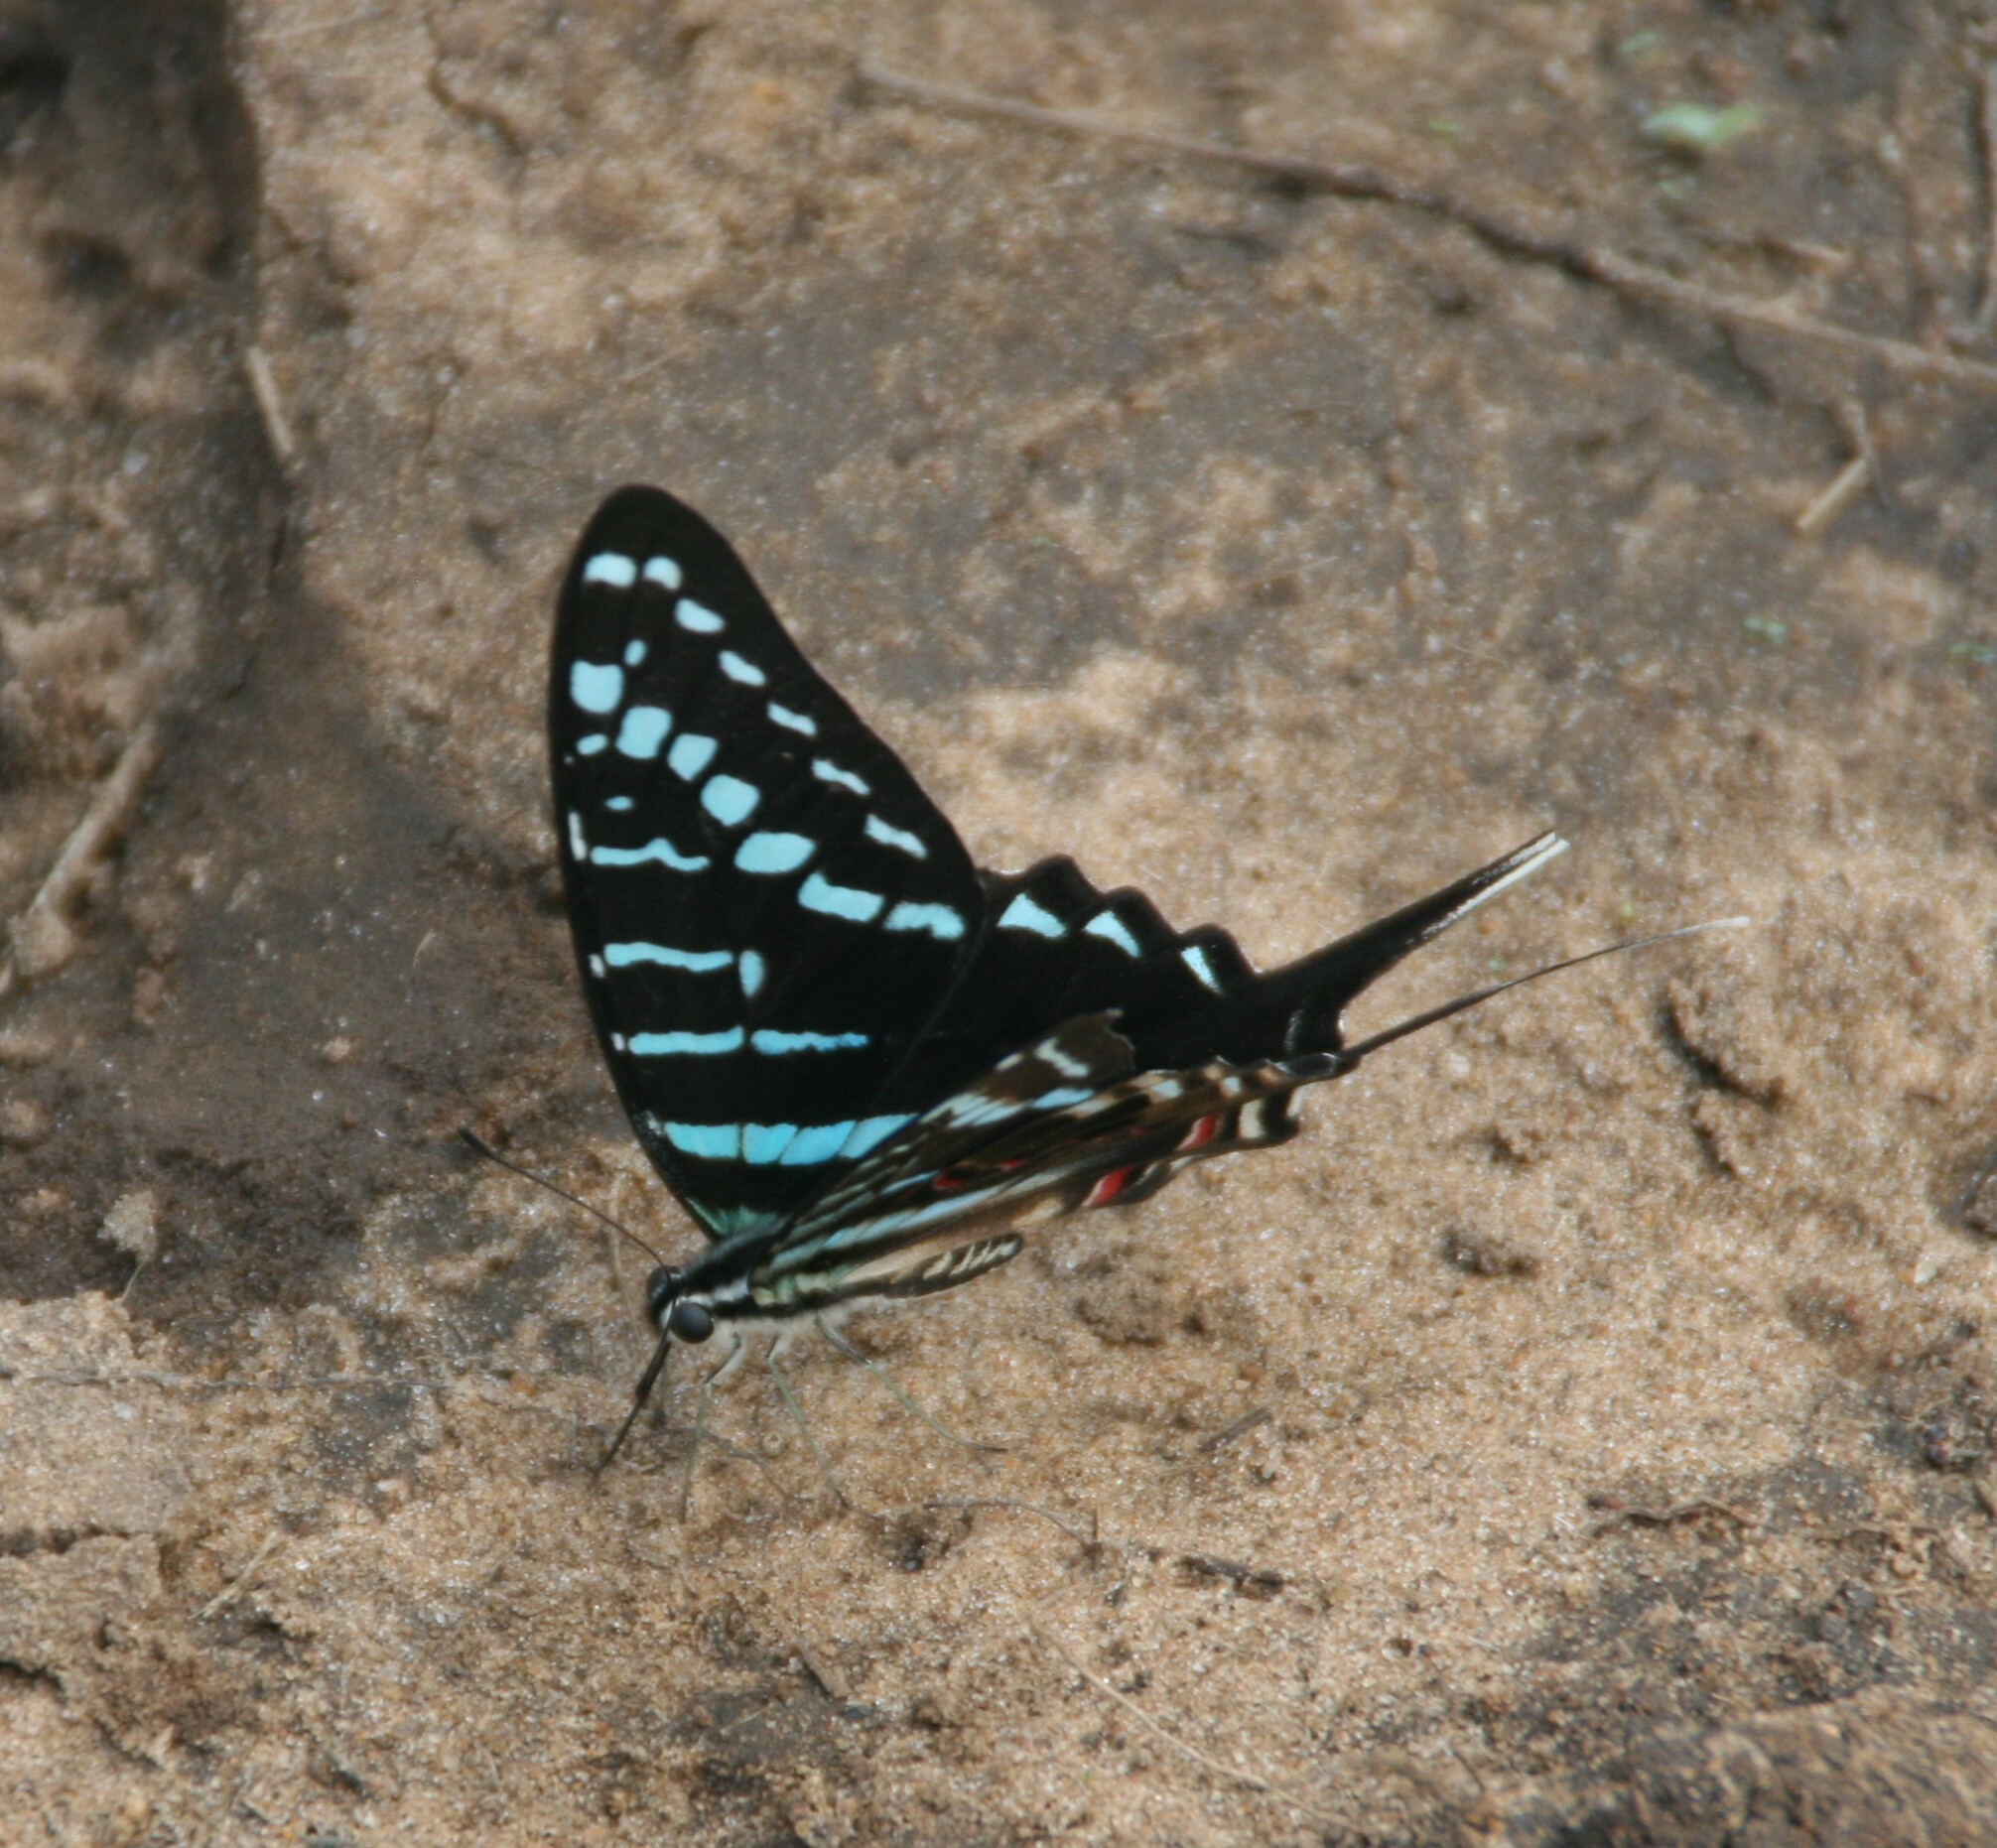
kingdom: Animalia
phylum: Arthropoda
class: Insecta
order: Lepidoptera
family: Papilionidae
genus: Graphium
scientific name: Graphium colonna
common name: Mamba swordtail
